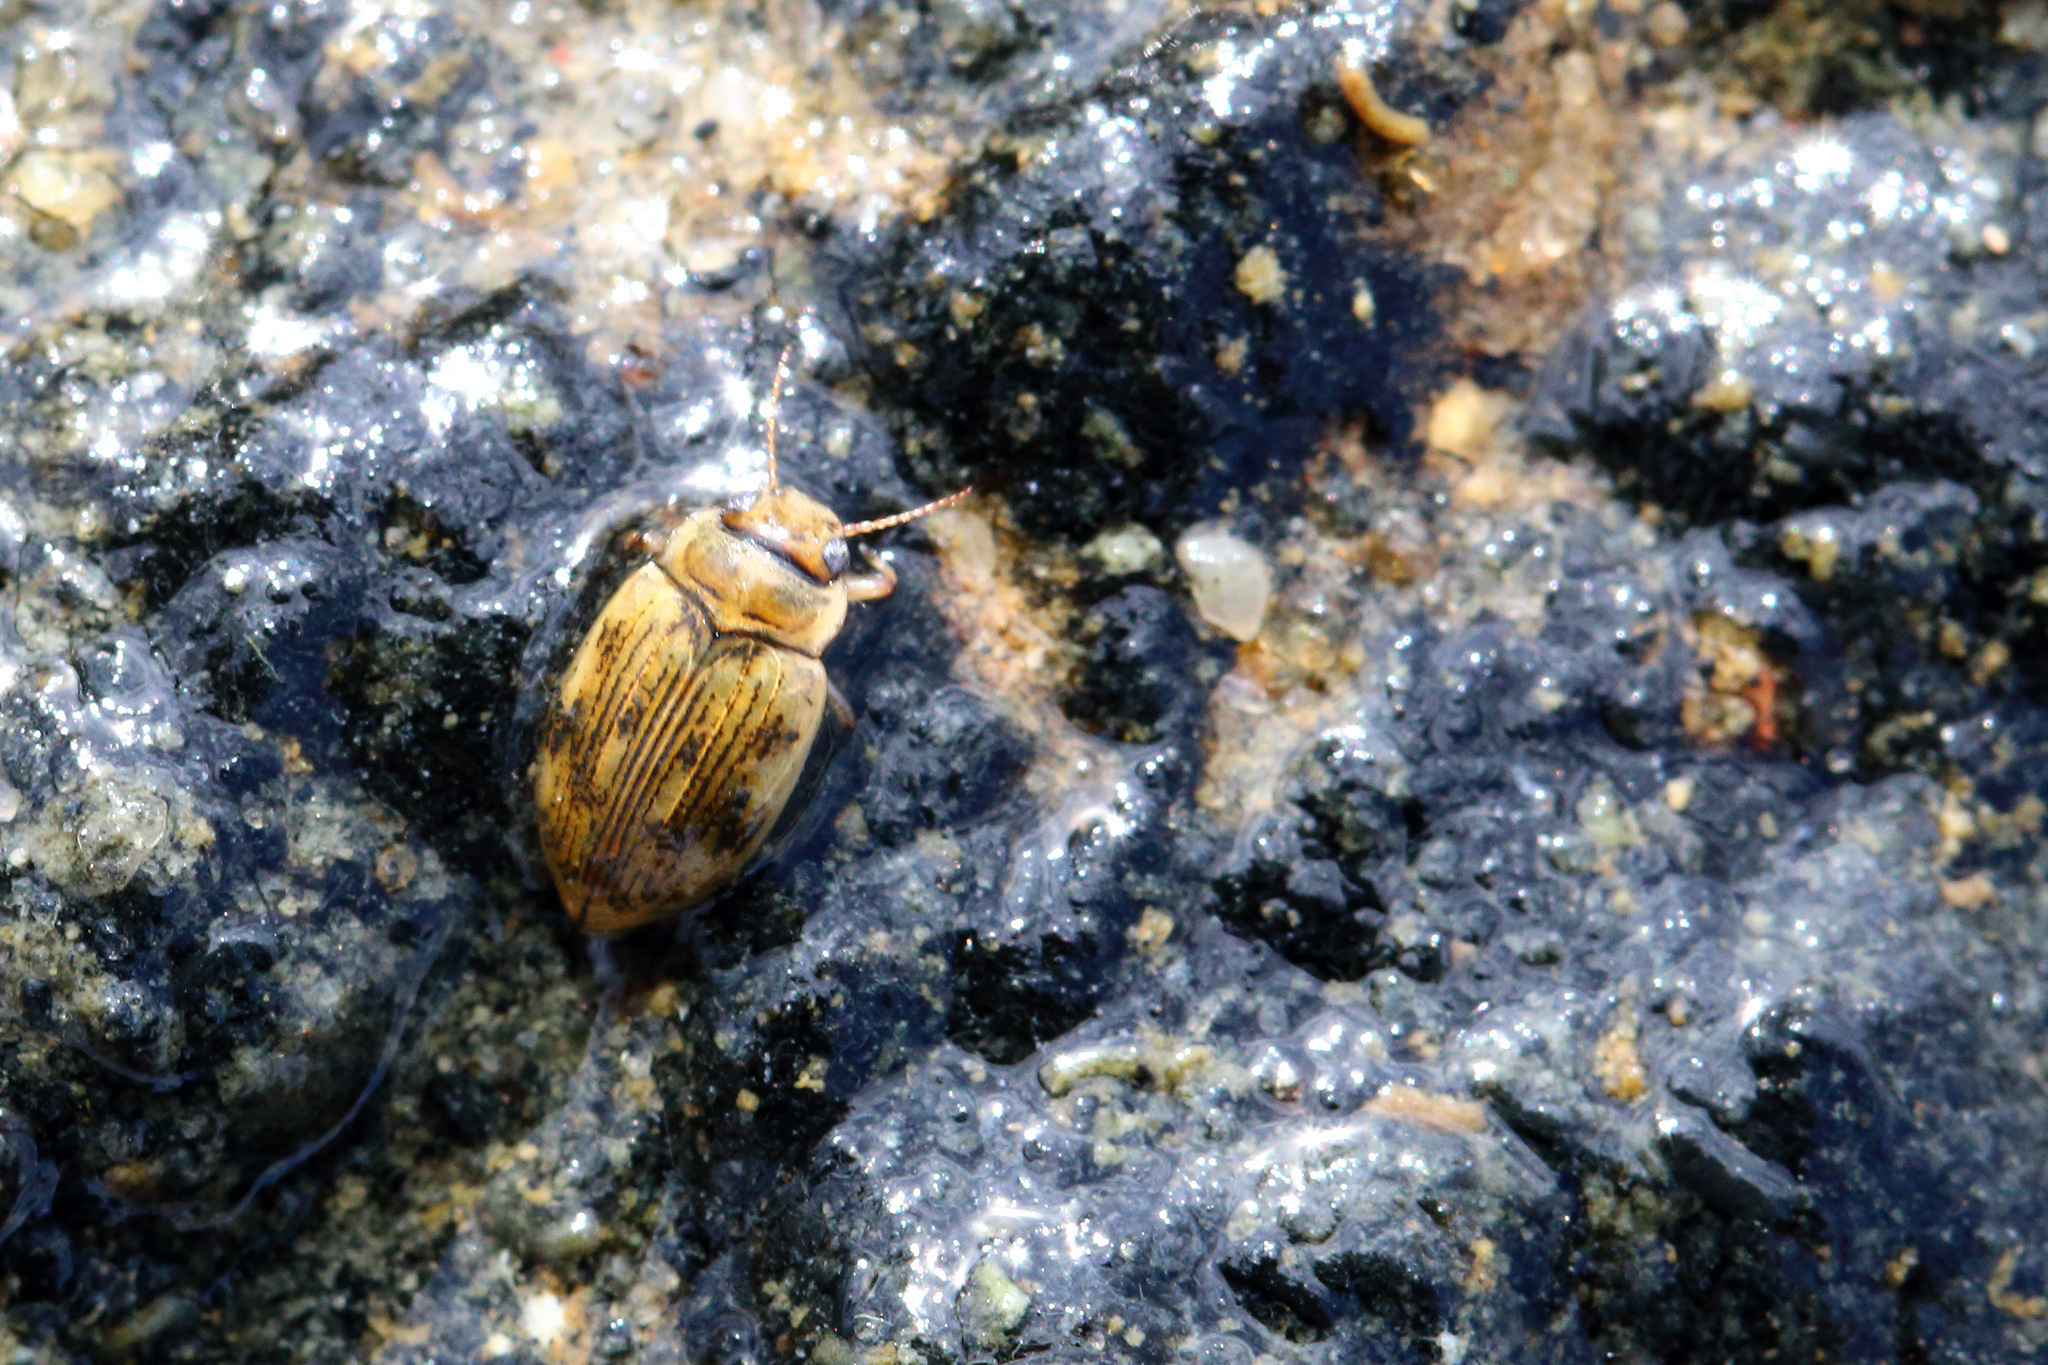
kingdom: Animalia
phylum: Arthropoda
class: Insecta
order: Coleoptera
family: Dytiscidae
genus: Nebrioporus
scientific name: Nebrioporus canaliculatus
